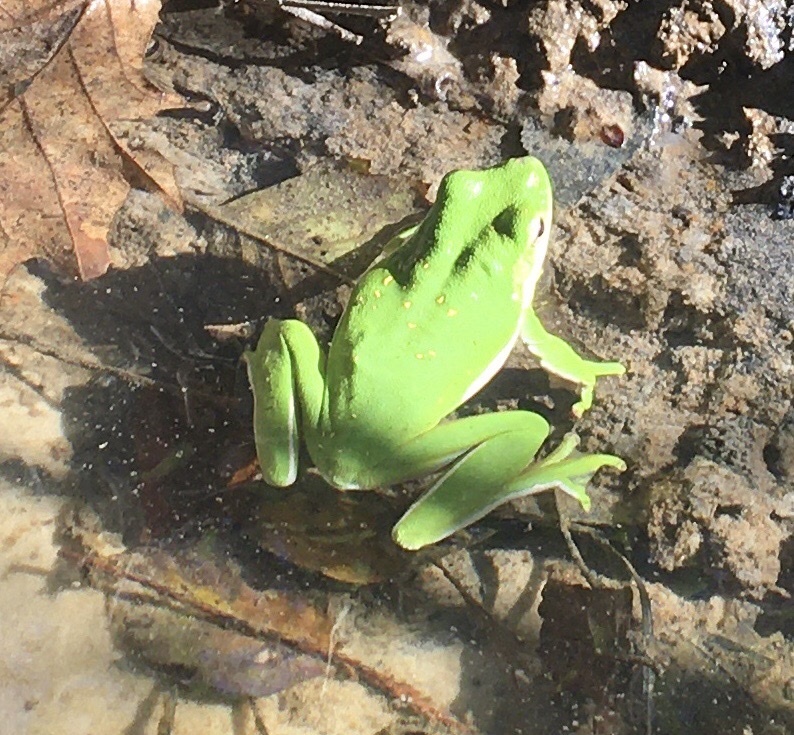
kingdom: Animalia
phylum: Chordata
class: Amphibia
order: Anura
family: Hylidae
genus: Dryophytes
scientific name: Dryophytes cinereus
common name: Green treefrog
